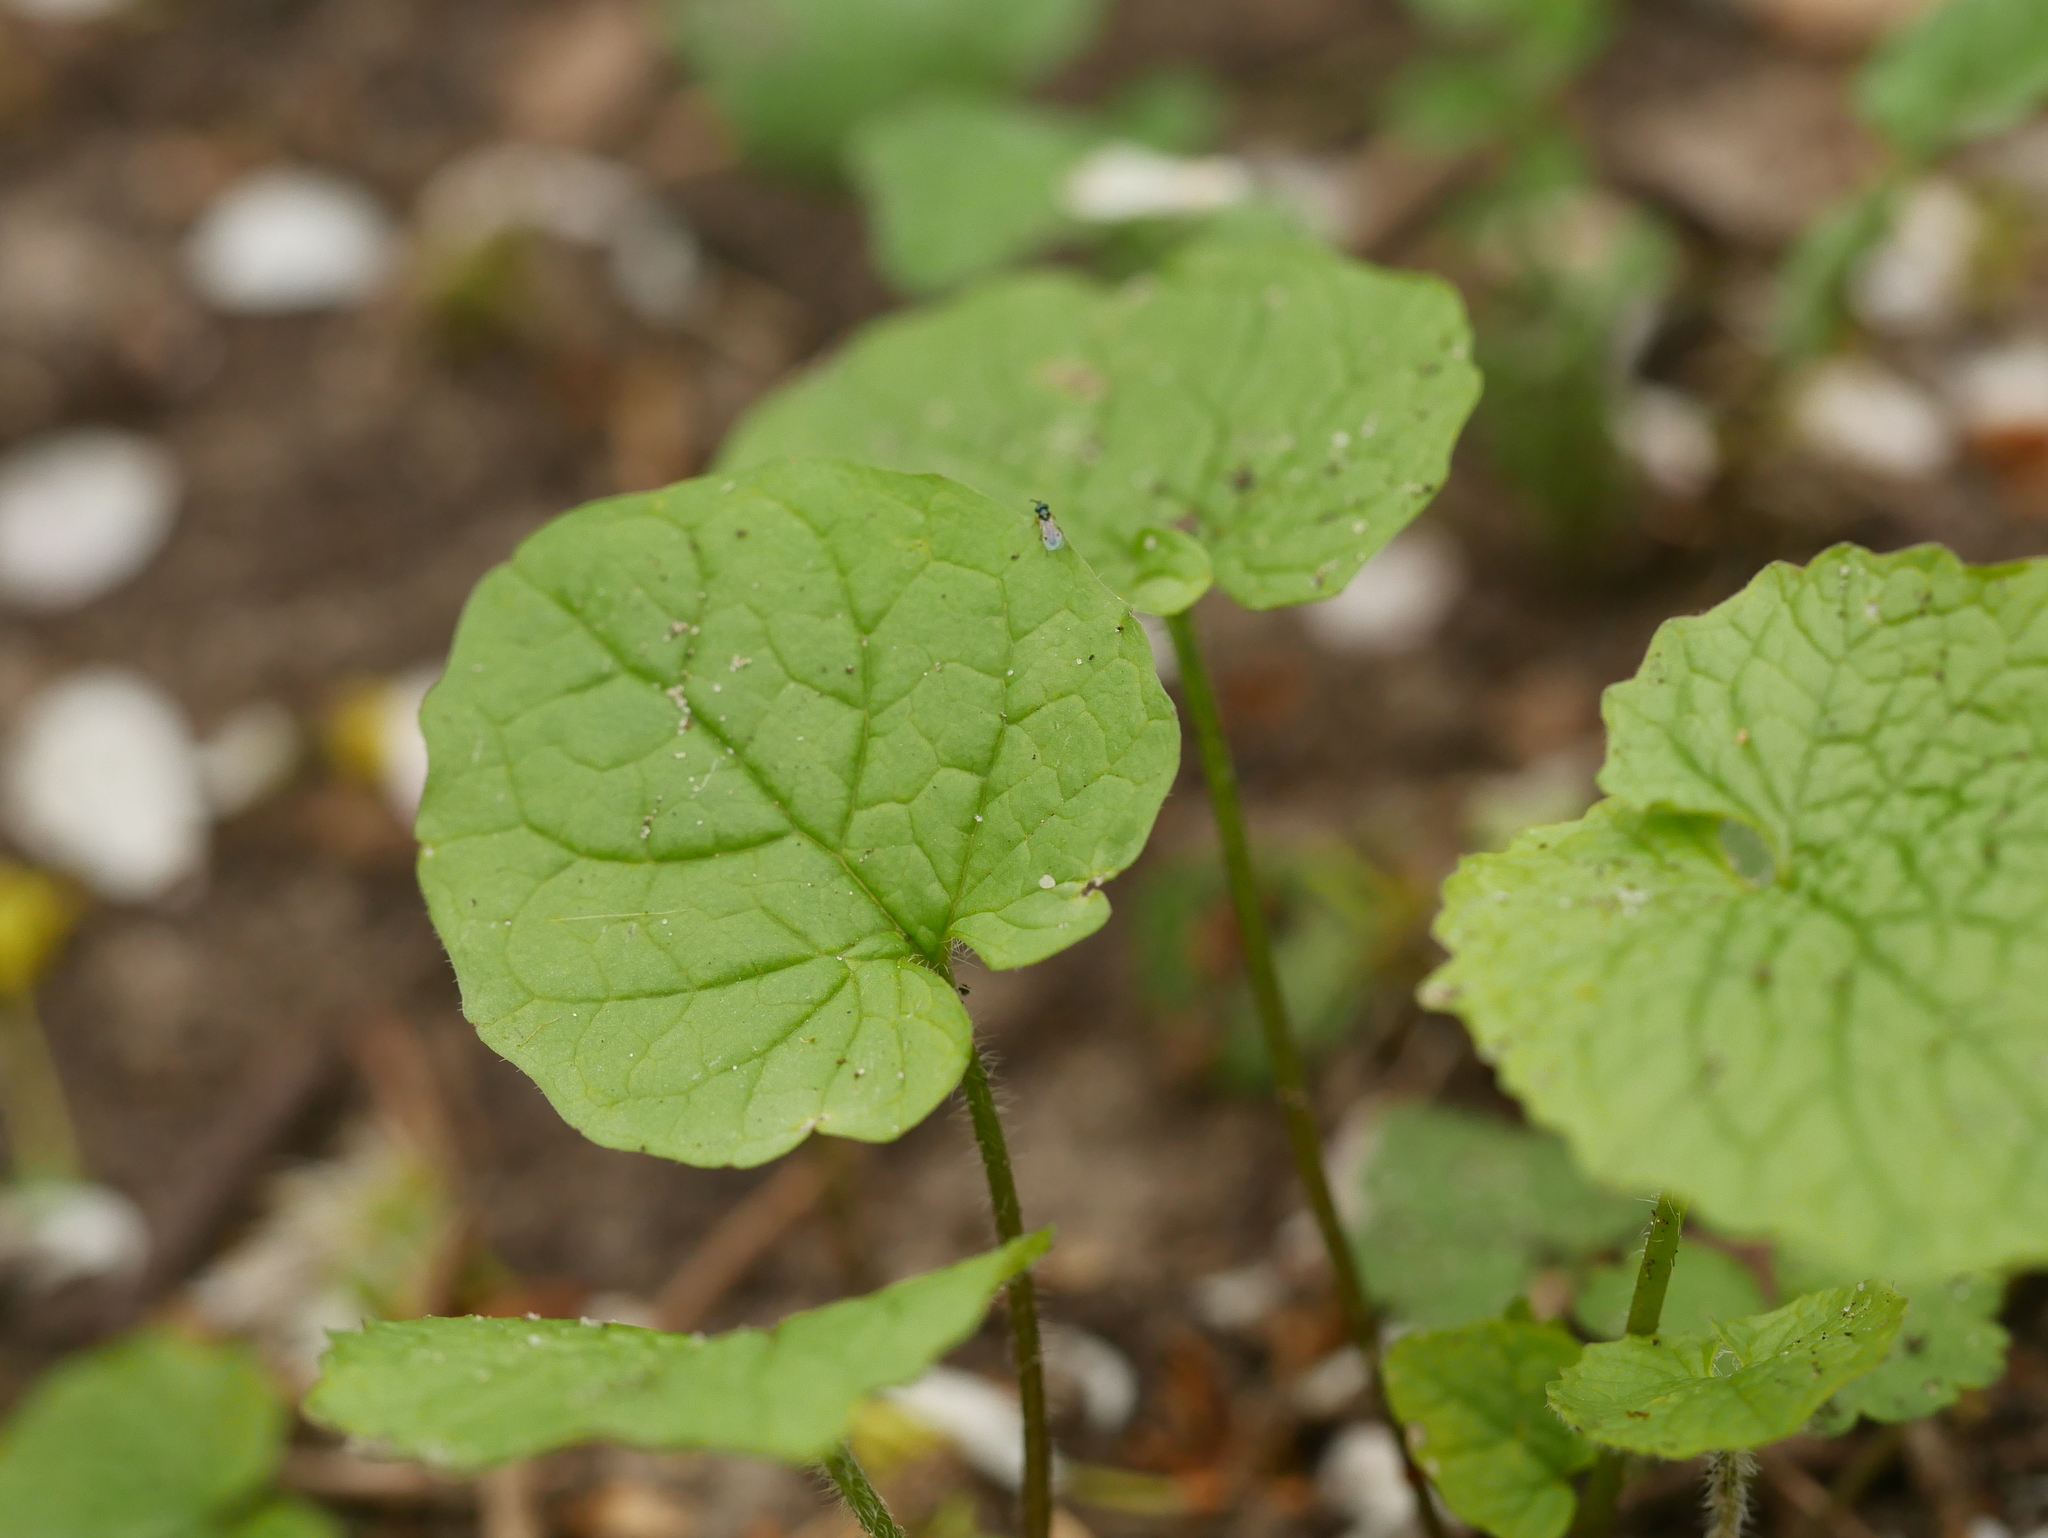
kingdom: Plantae
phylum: Tracheophyta
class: Magnoliopsida
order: Brassicales
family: Brassicaceae
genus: Alliaria
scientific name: Alliaria petiolata
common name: Garlic mustard
